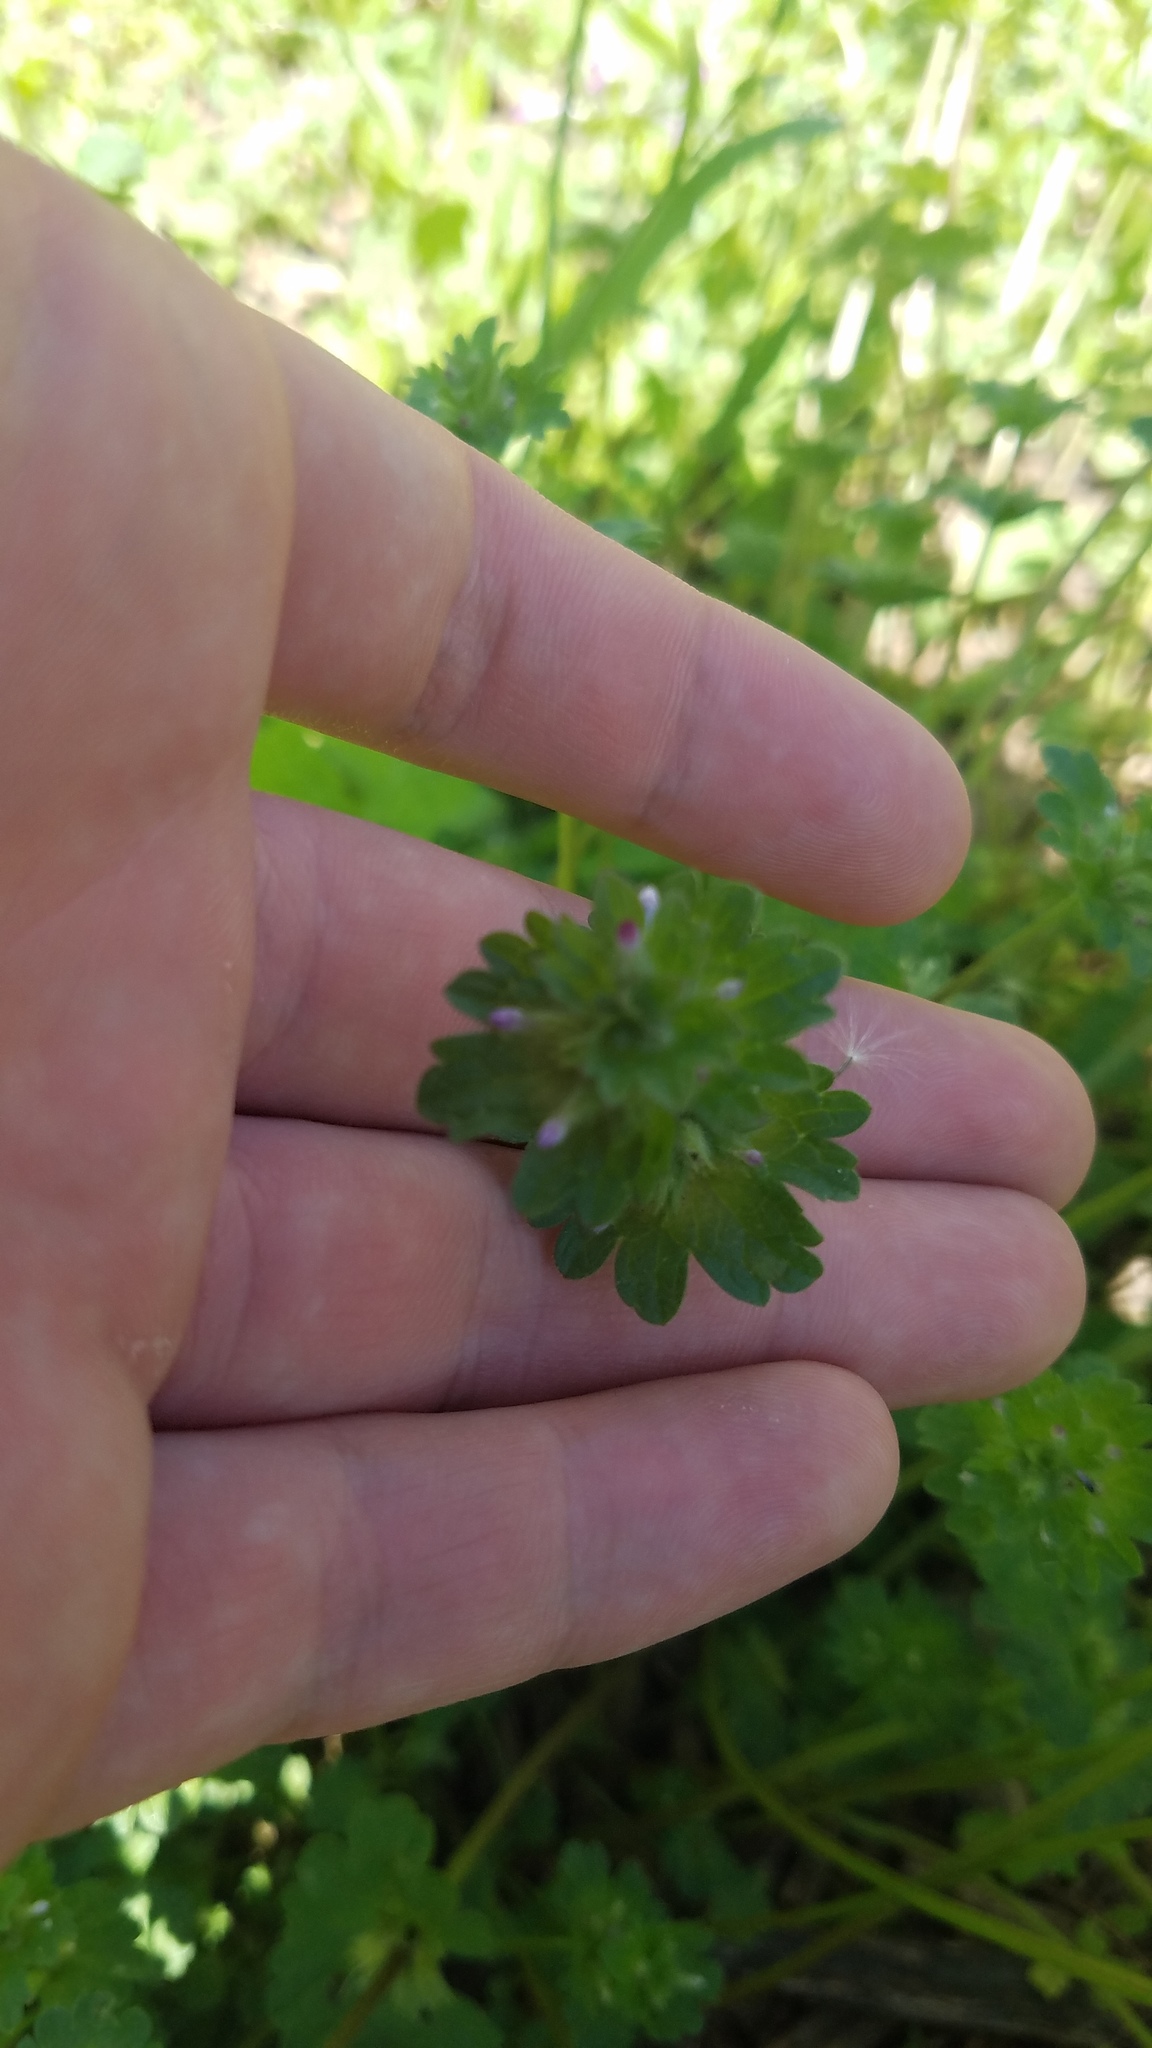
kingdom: Plantae
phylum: Tracheophyta
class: Magnoliopsida
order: Lamiales
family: Lamiaceae
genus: Lamium
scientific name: Lamium amplexicaule
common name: Henbit dead-nettle
